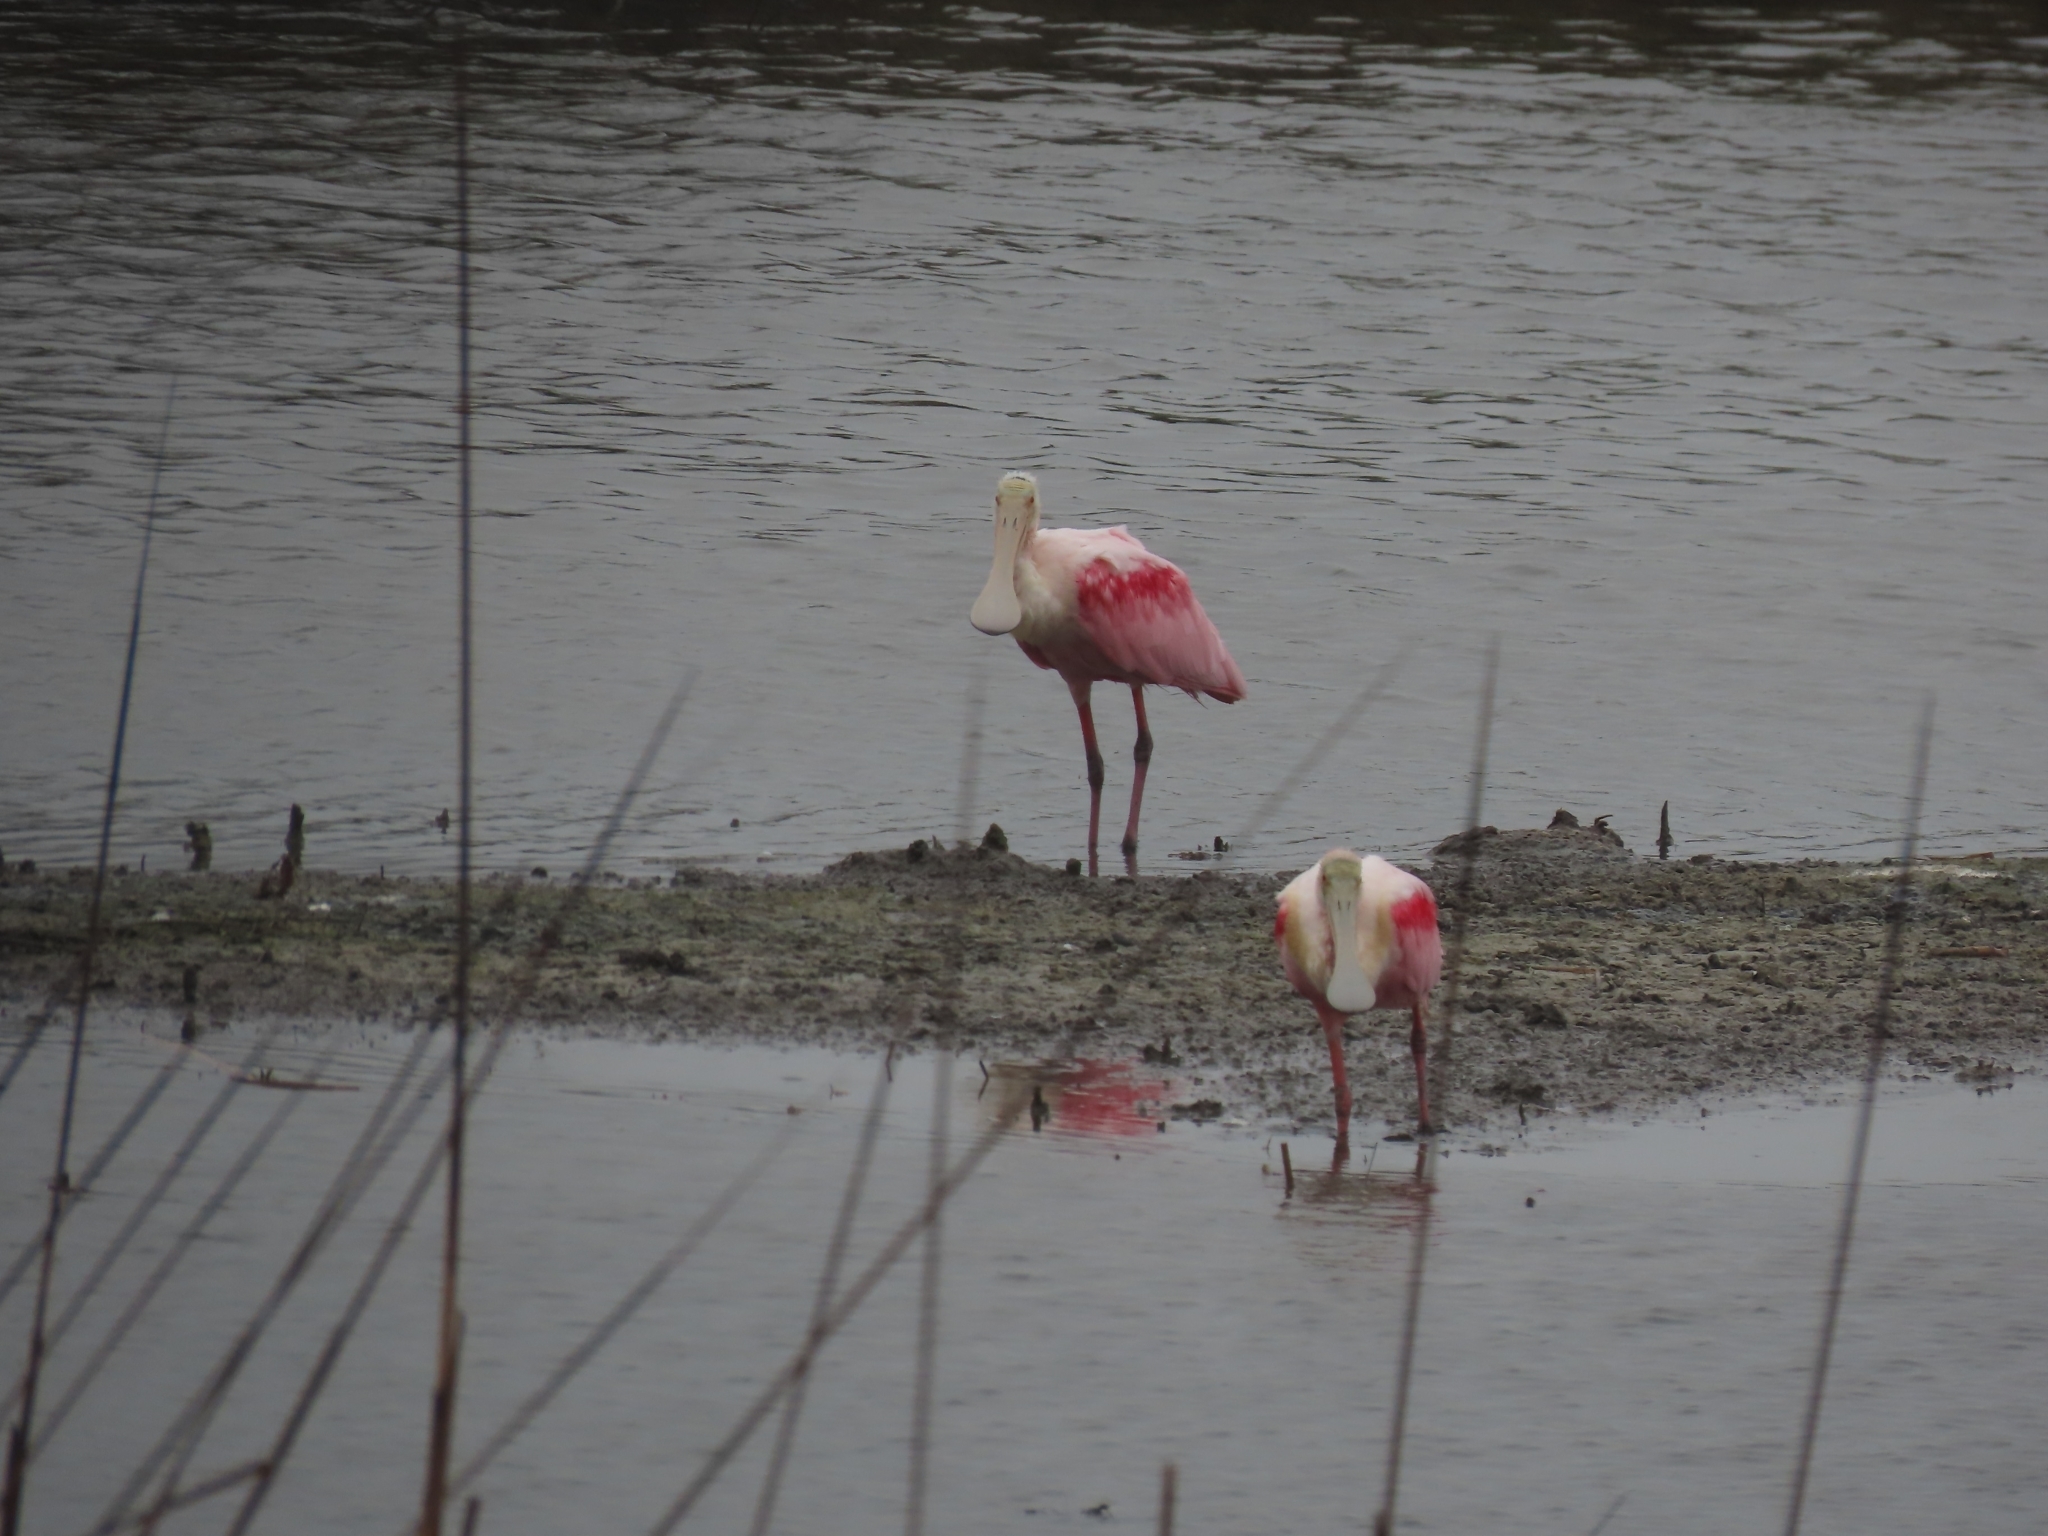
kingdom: Animalia
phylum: Chordata
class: Aves
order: Pelecaniformes
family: Threskiornithidae
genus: Platalea
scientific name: Platalea ajaja
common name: Roseate spoonbill
